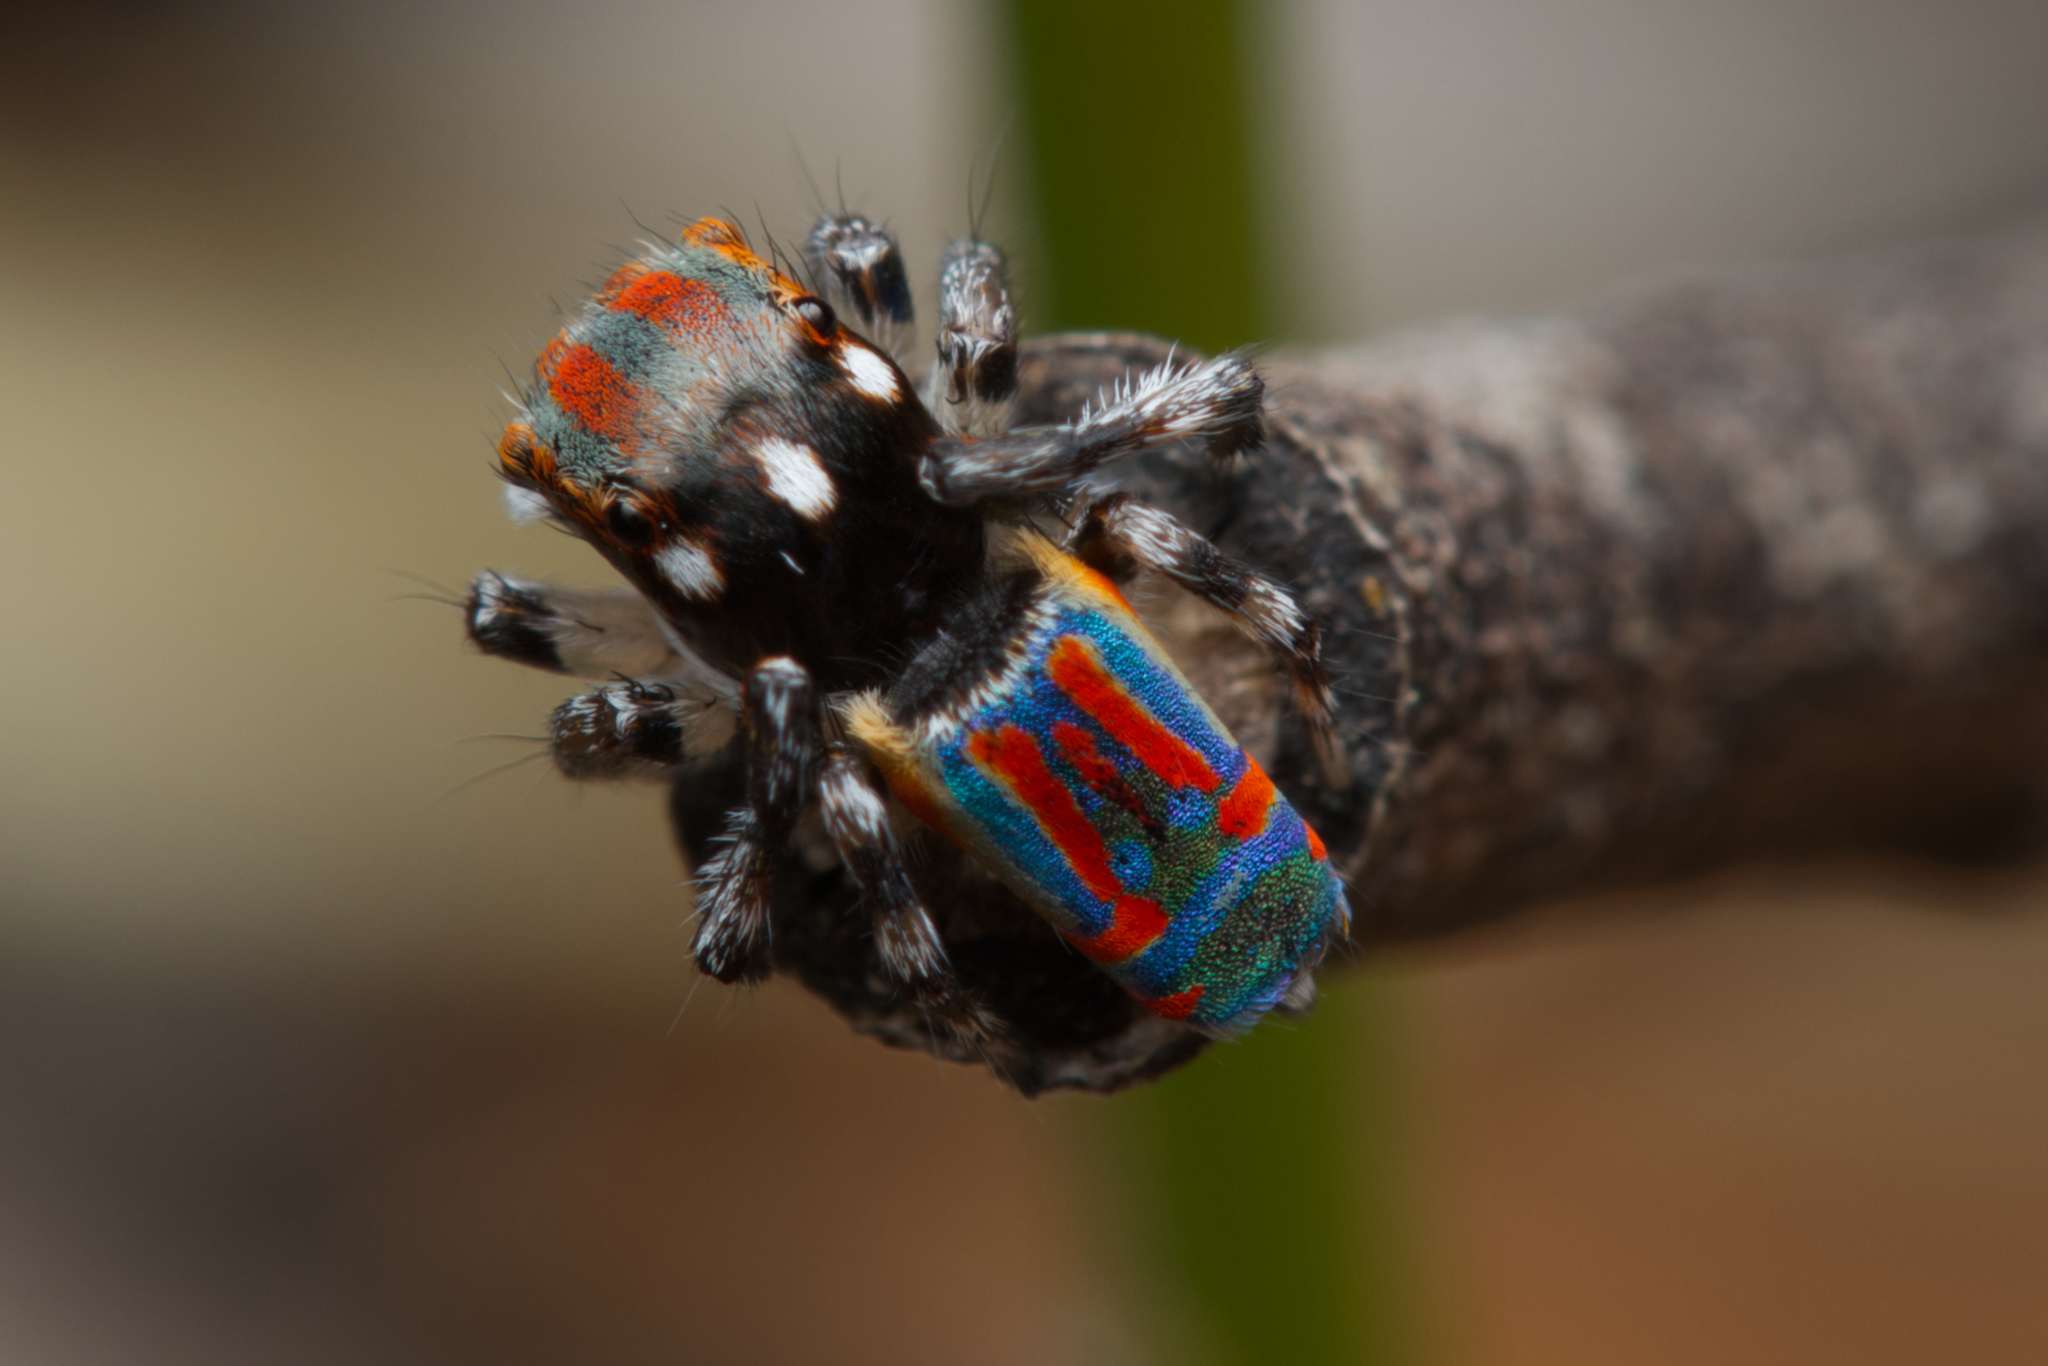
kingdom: Animalia
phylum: Arthropoda
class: Arachnida
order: Araneae
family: Salticidae
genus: Maratus
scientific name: Maratus volans
